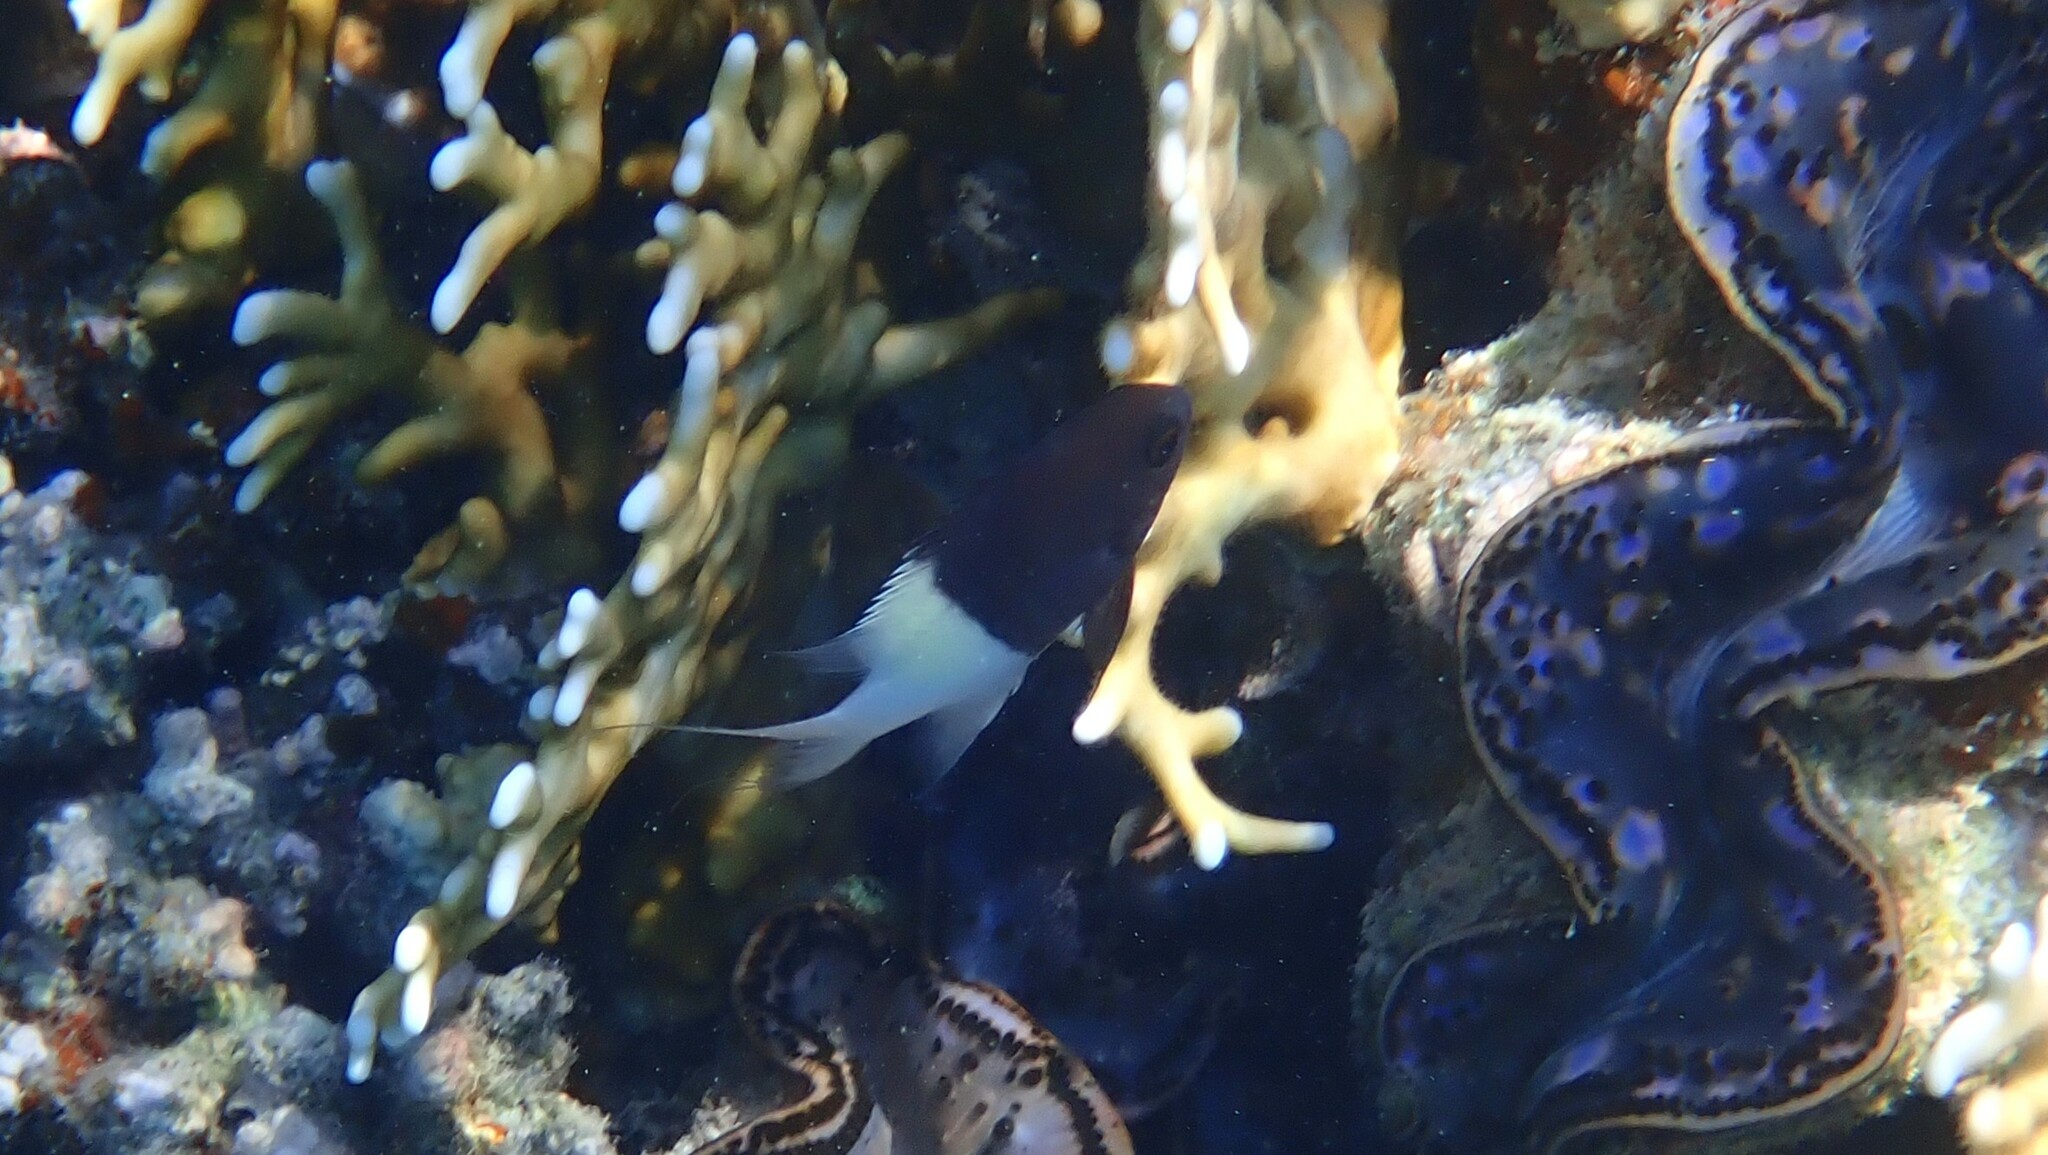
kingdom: Animalia
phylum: Chordata
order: Perciformes
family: Pomacentridae
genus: Chromis
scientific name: Chromis dimidiata
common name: Half-and-half chromis
